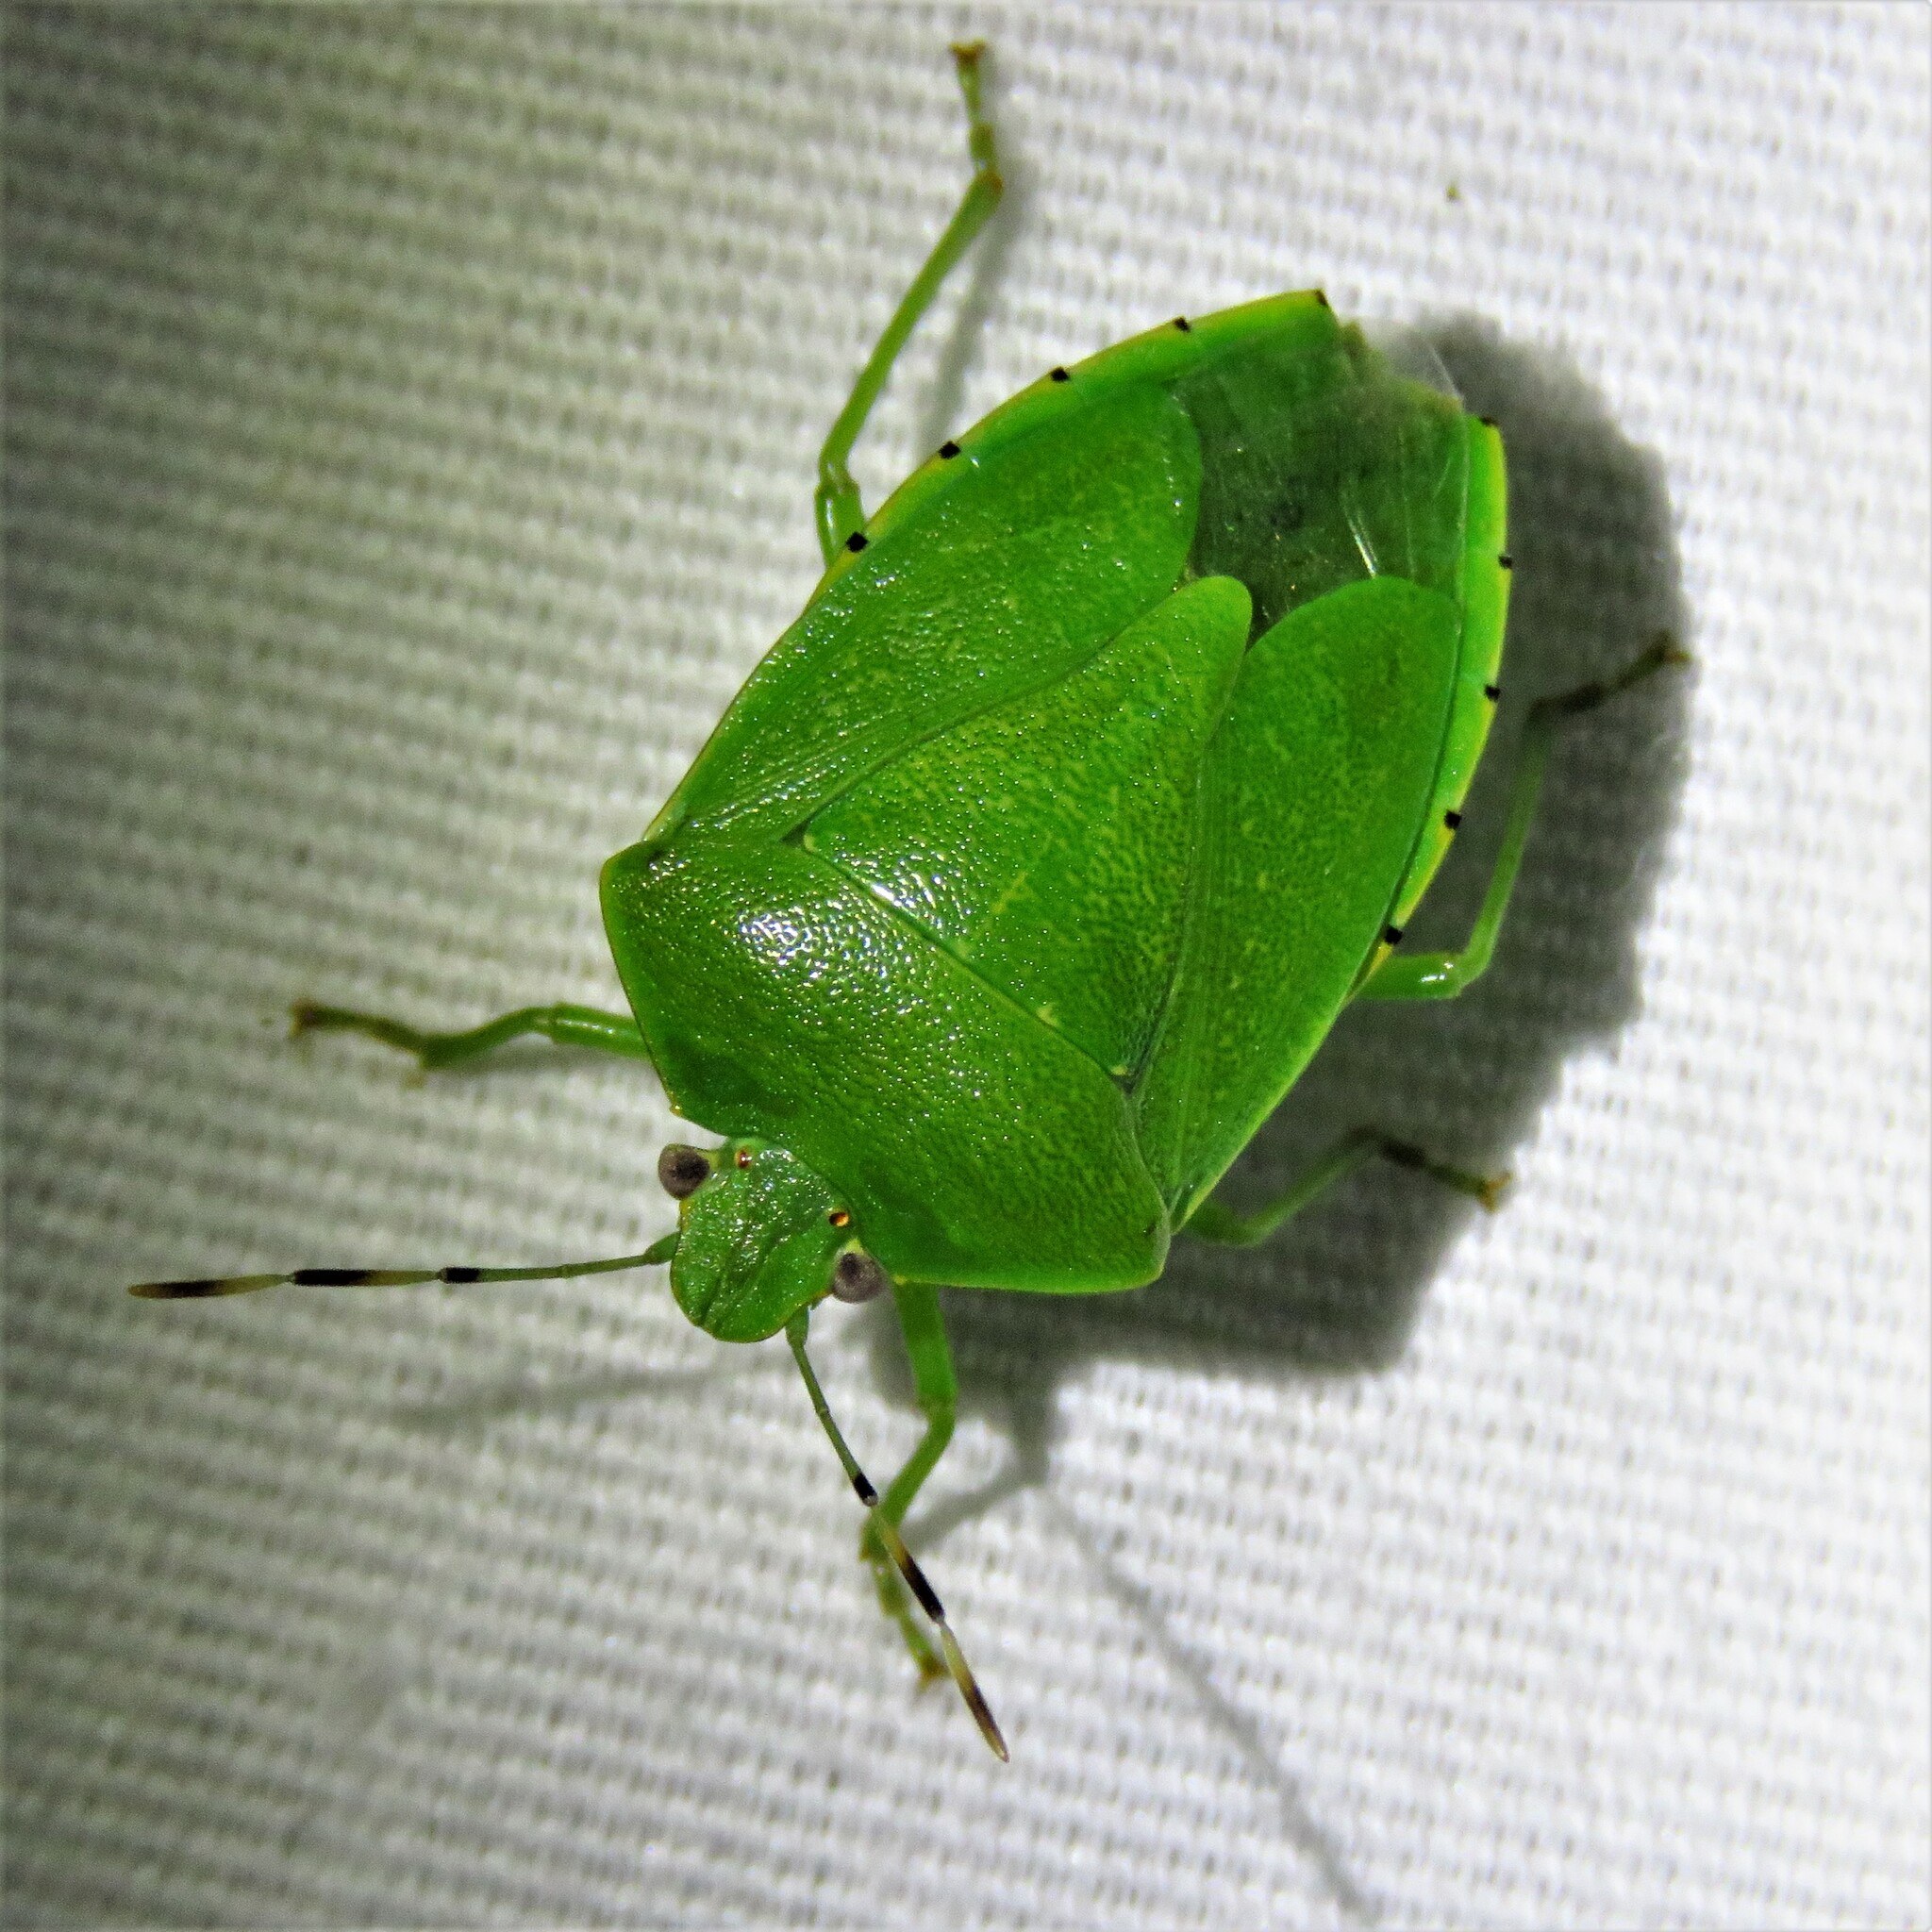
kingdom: Animalia
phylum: Arthropoda
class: Insecta
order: Hemiptera
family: Pentatomidae
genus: Chinavia
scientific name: Chinavia hilaris
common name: Green stink bug
